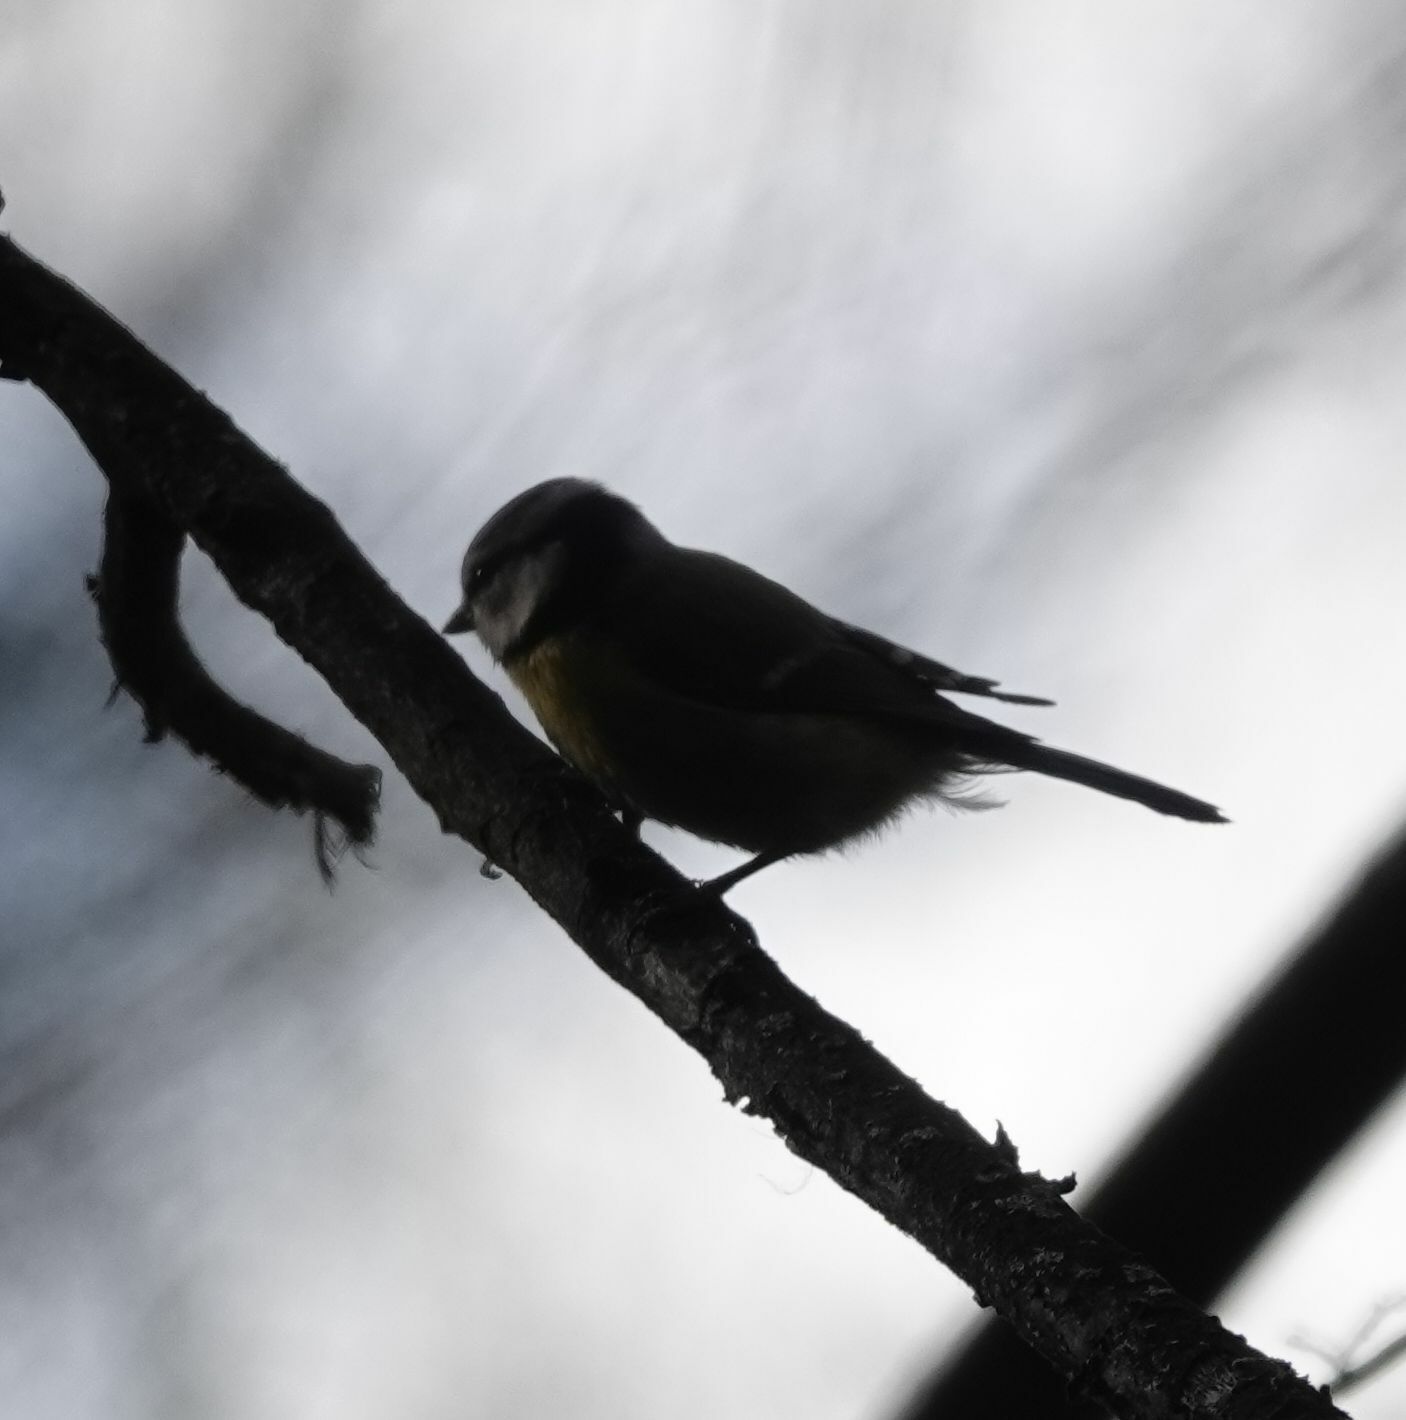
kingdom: Animalia
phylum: Chordata
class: Aves
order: Passeriformes
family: Paridae
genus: Cyanistes
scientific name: Cyanistes caeruleus
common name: Eurasian blue tit
